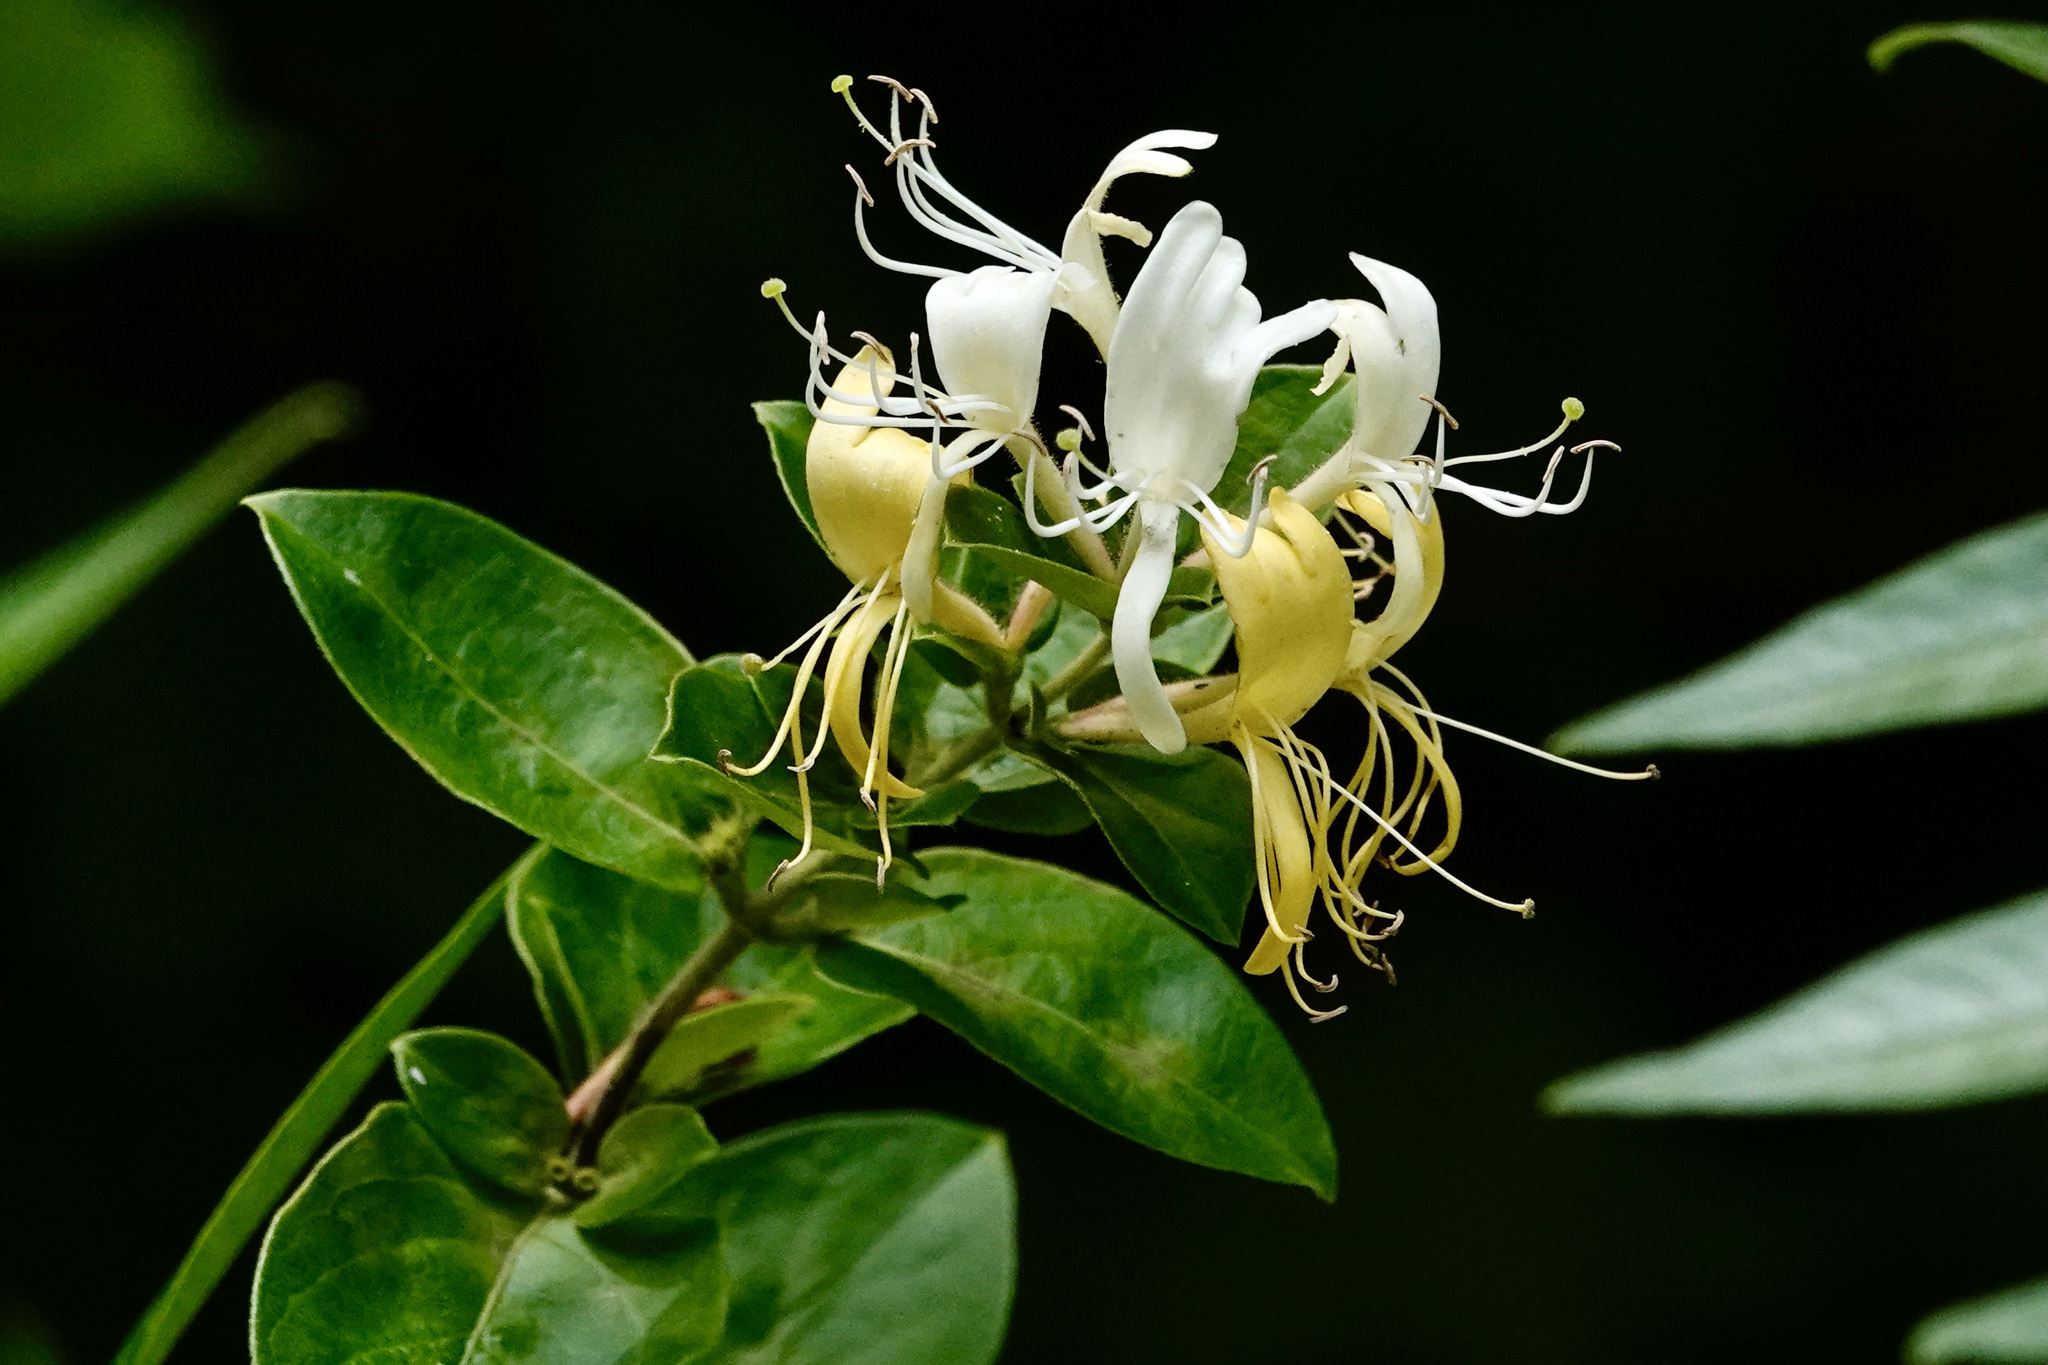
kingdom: Plantae
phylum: Tracheophyta
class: Magnoliopsida
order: Dipsacales
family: Caprifoliaceae
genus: Lonicera
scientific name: Lonicera japonica
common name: Japanese honeysuckle
